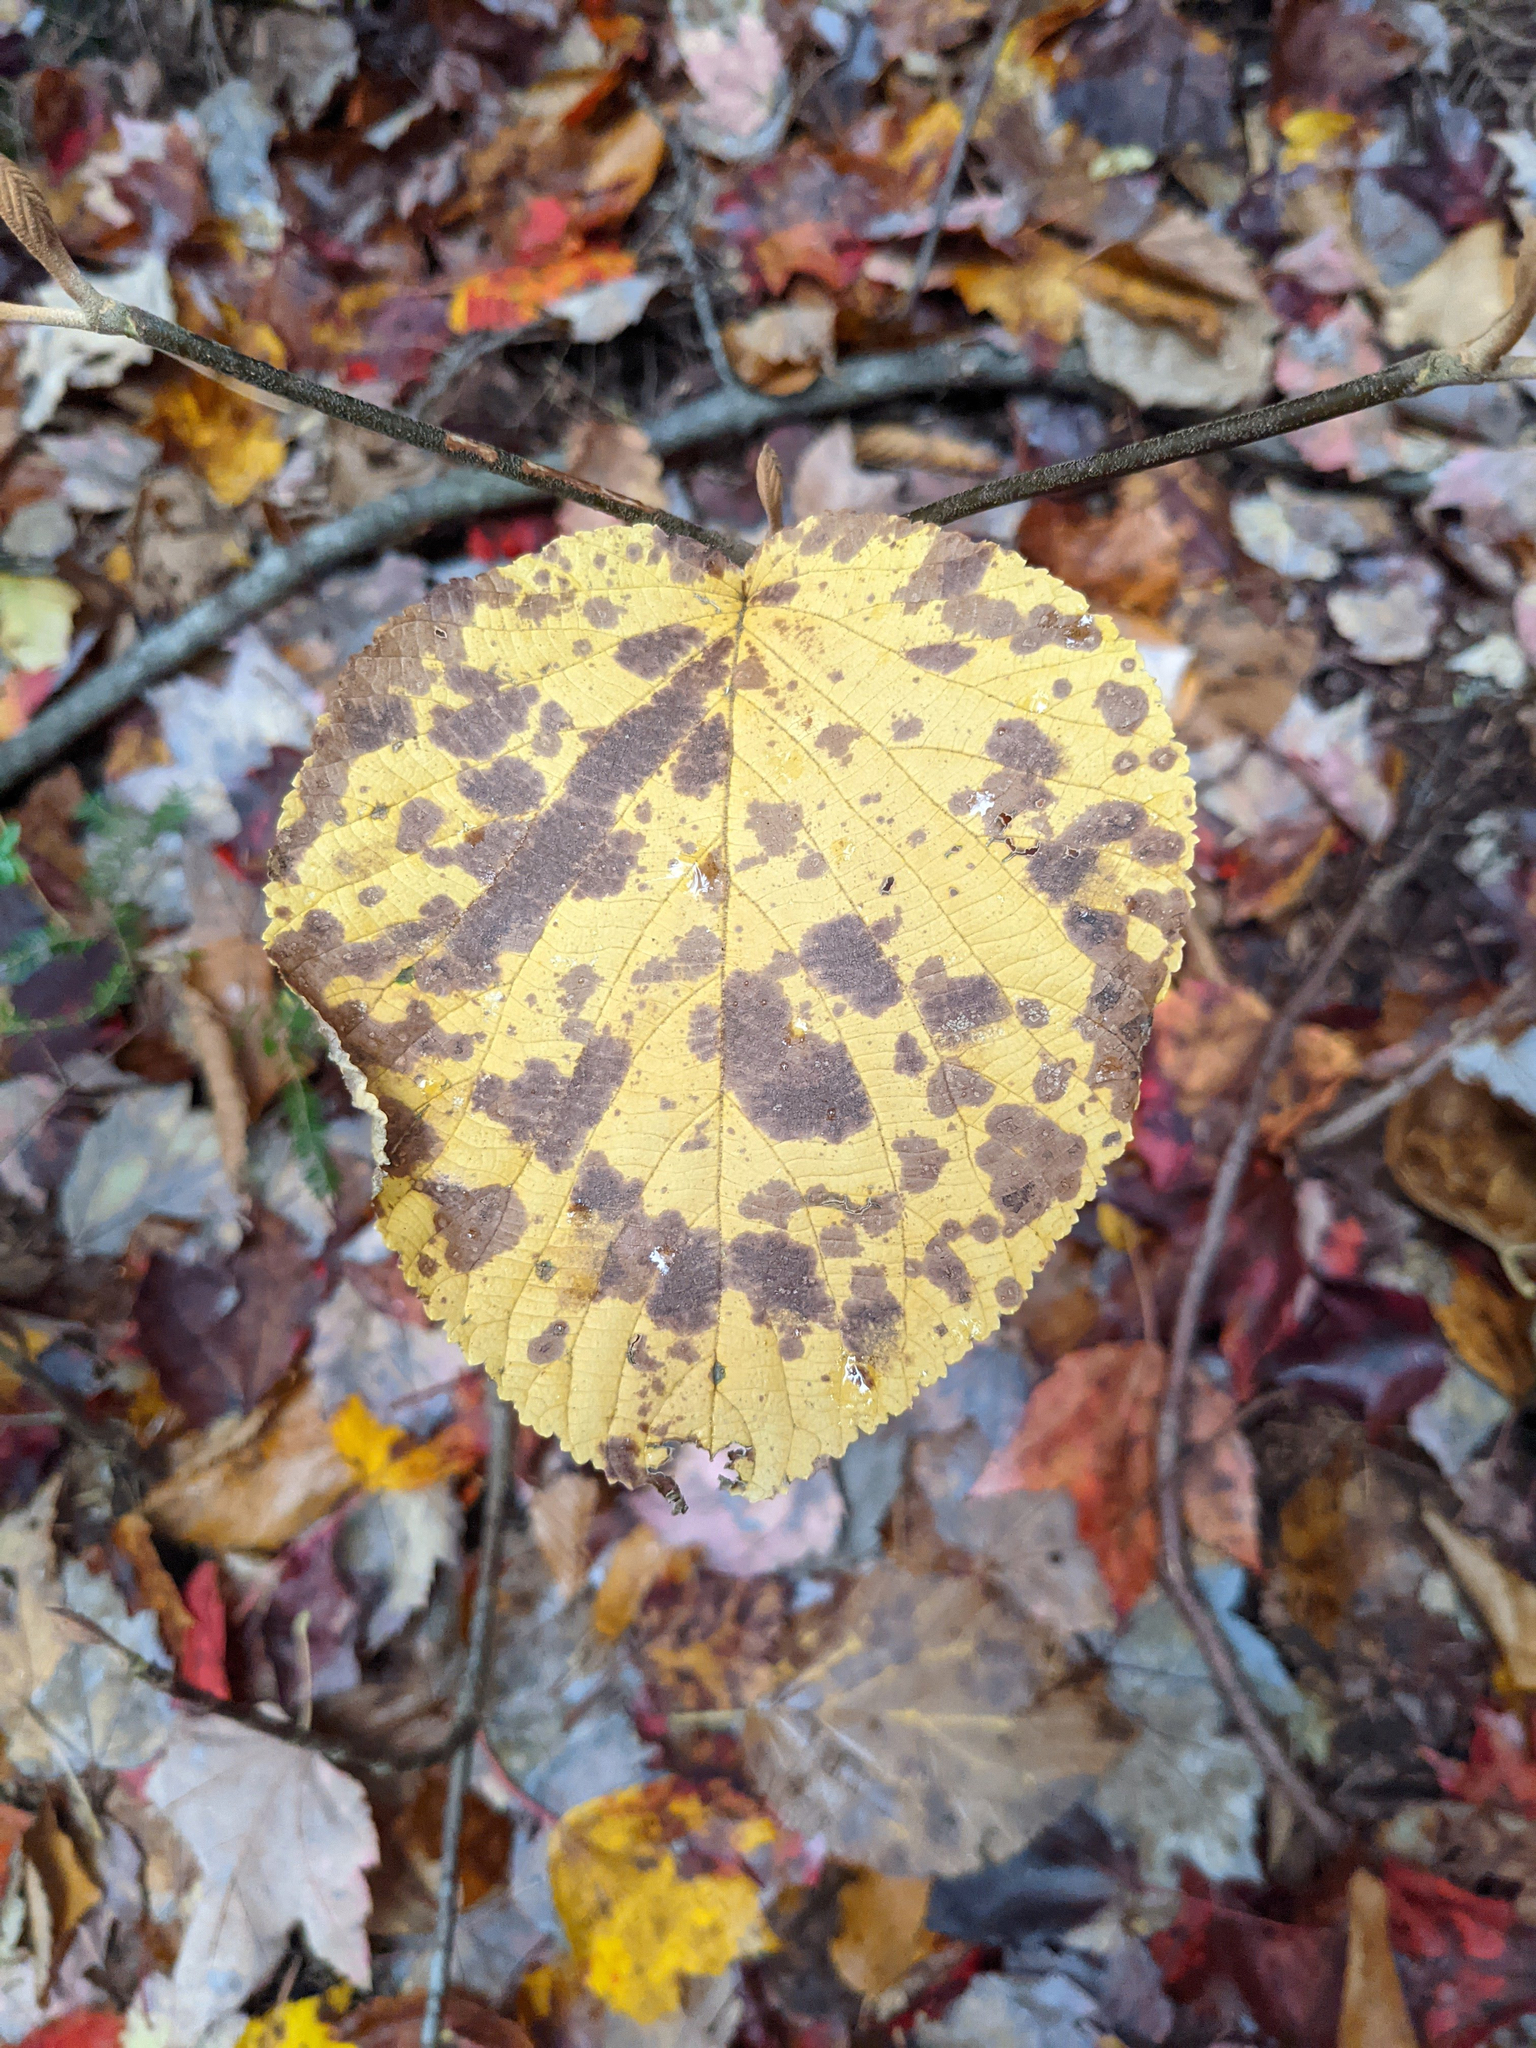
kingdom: Plantae
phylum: Tracheophyta
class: Magnoliopsida
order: Dipsacales
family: Viburnaceae
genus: Viburnum
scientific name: Viburnum lantanoides
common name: Hobblebush
